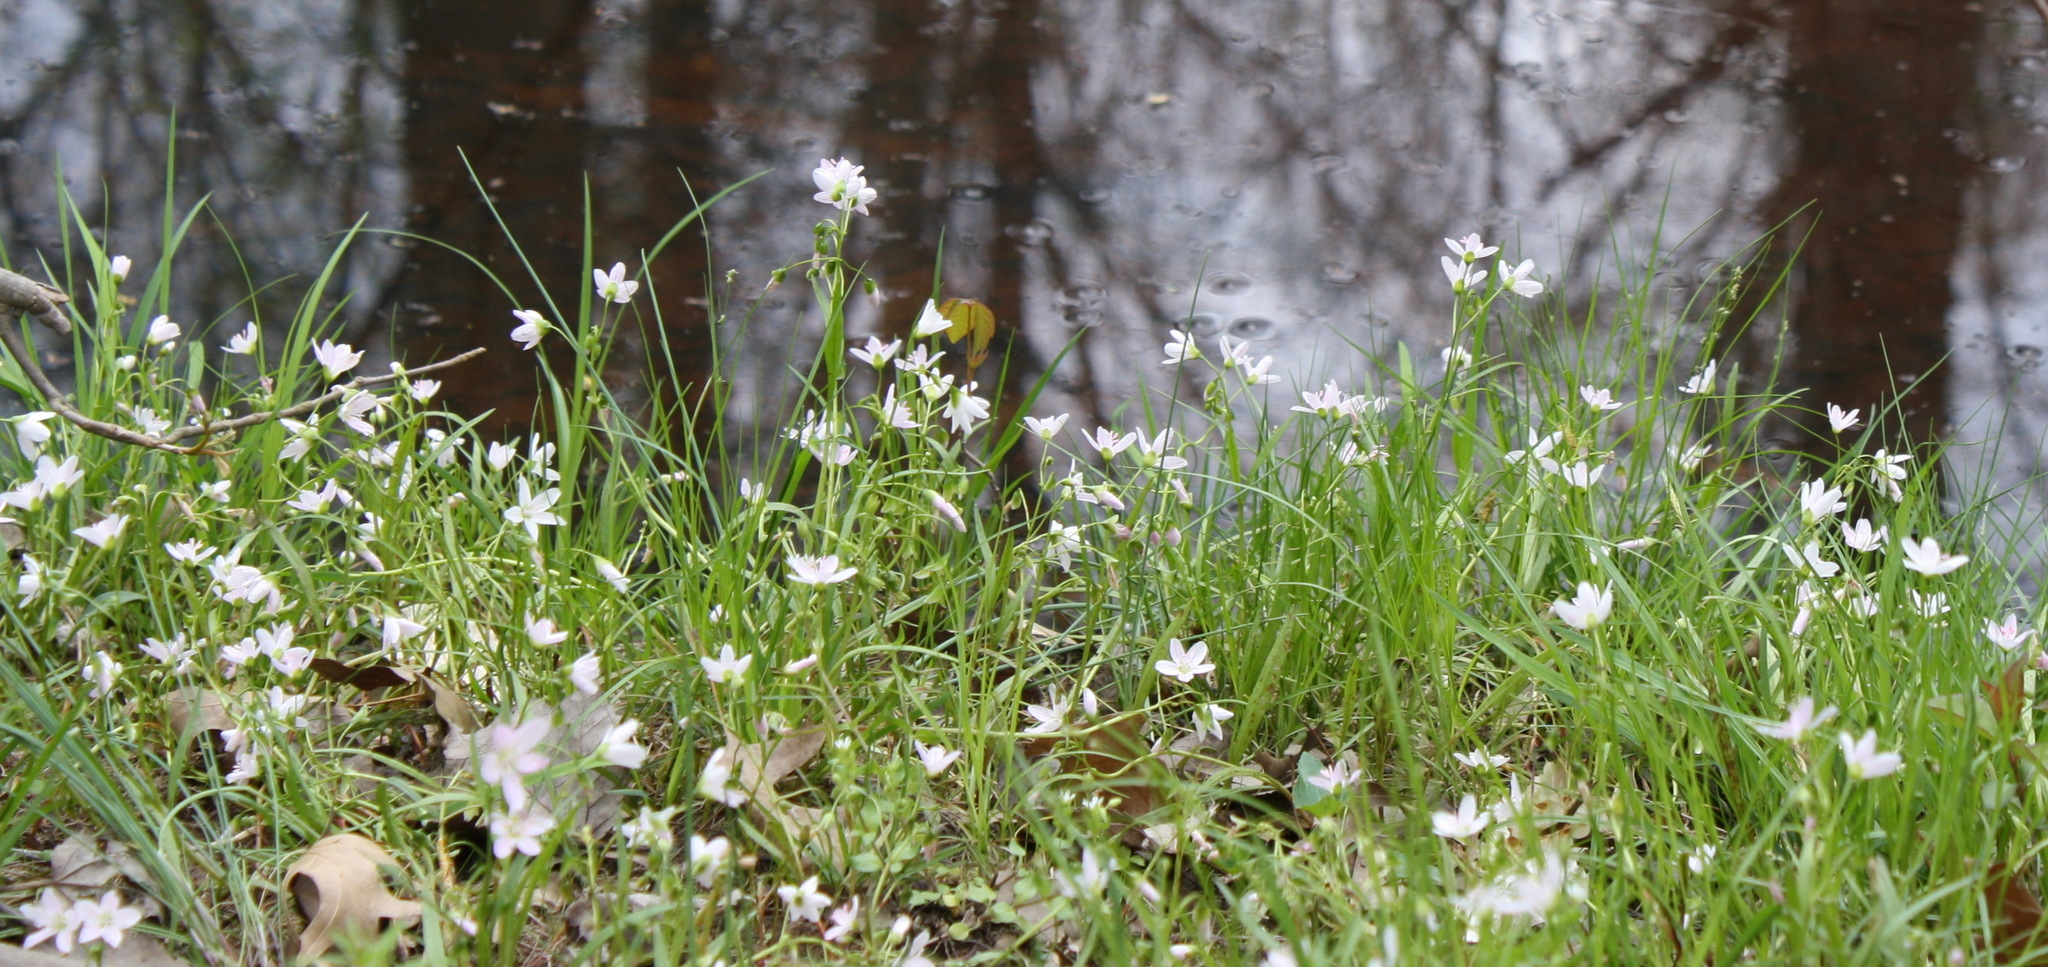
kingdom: Plantae
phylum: Tracheophyta
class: Magnoliopsida
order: Caryophyllales
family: Montiaceae
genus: Claytonia
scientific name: Claytonia virginica
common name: Virginia springbeauty
